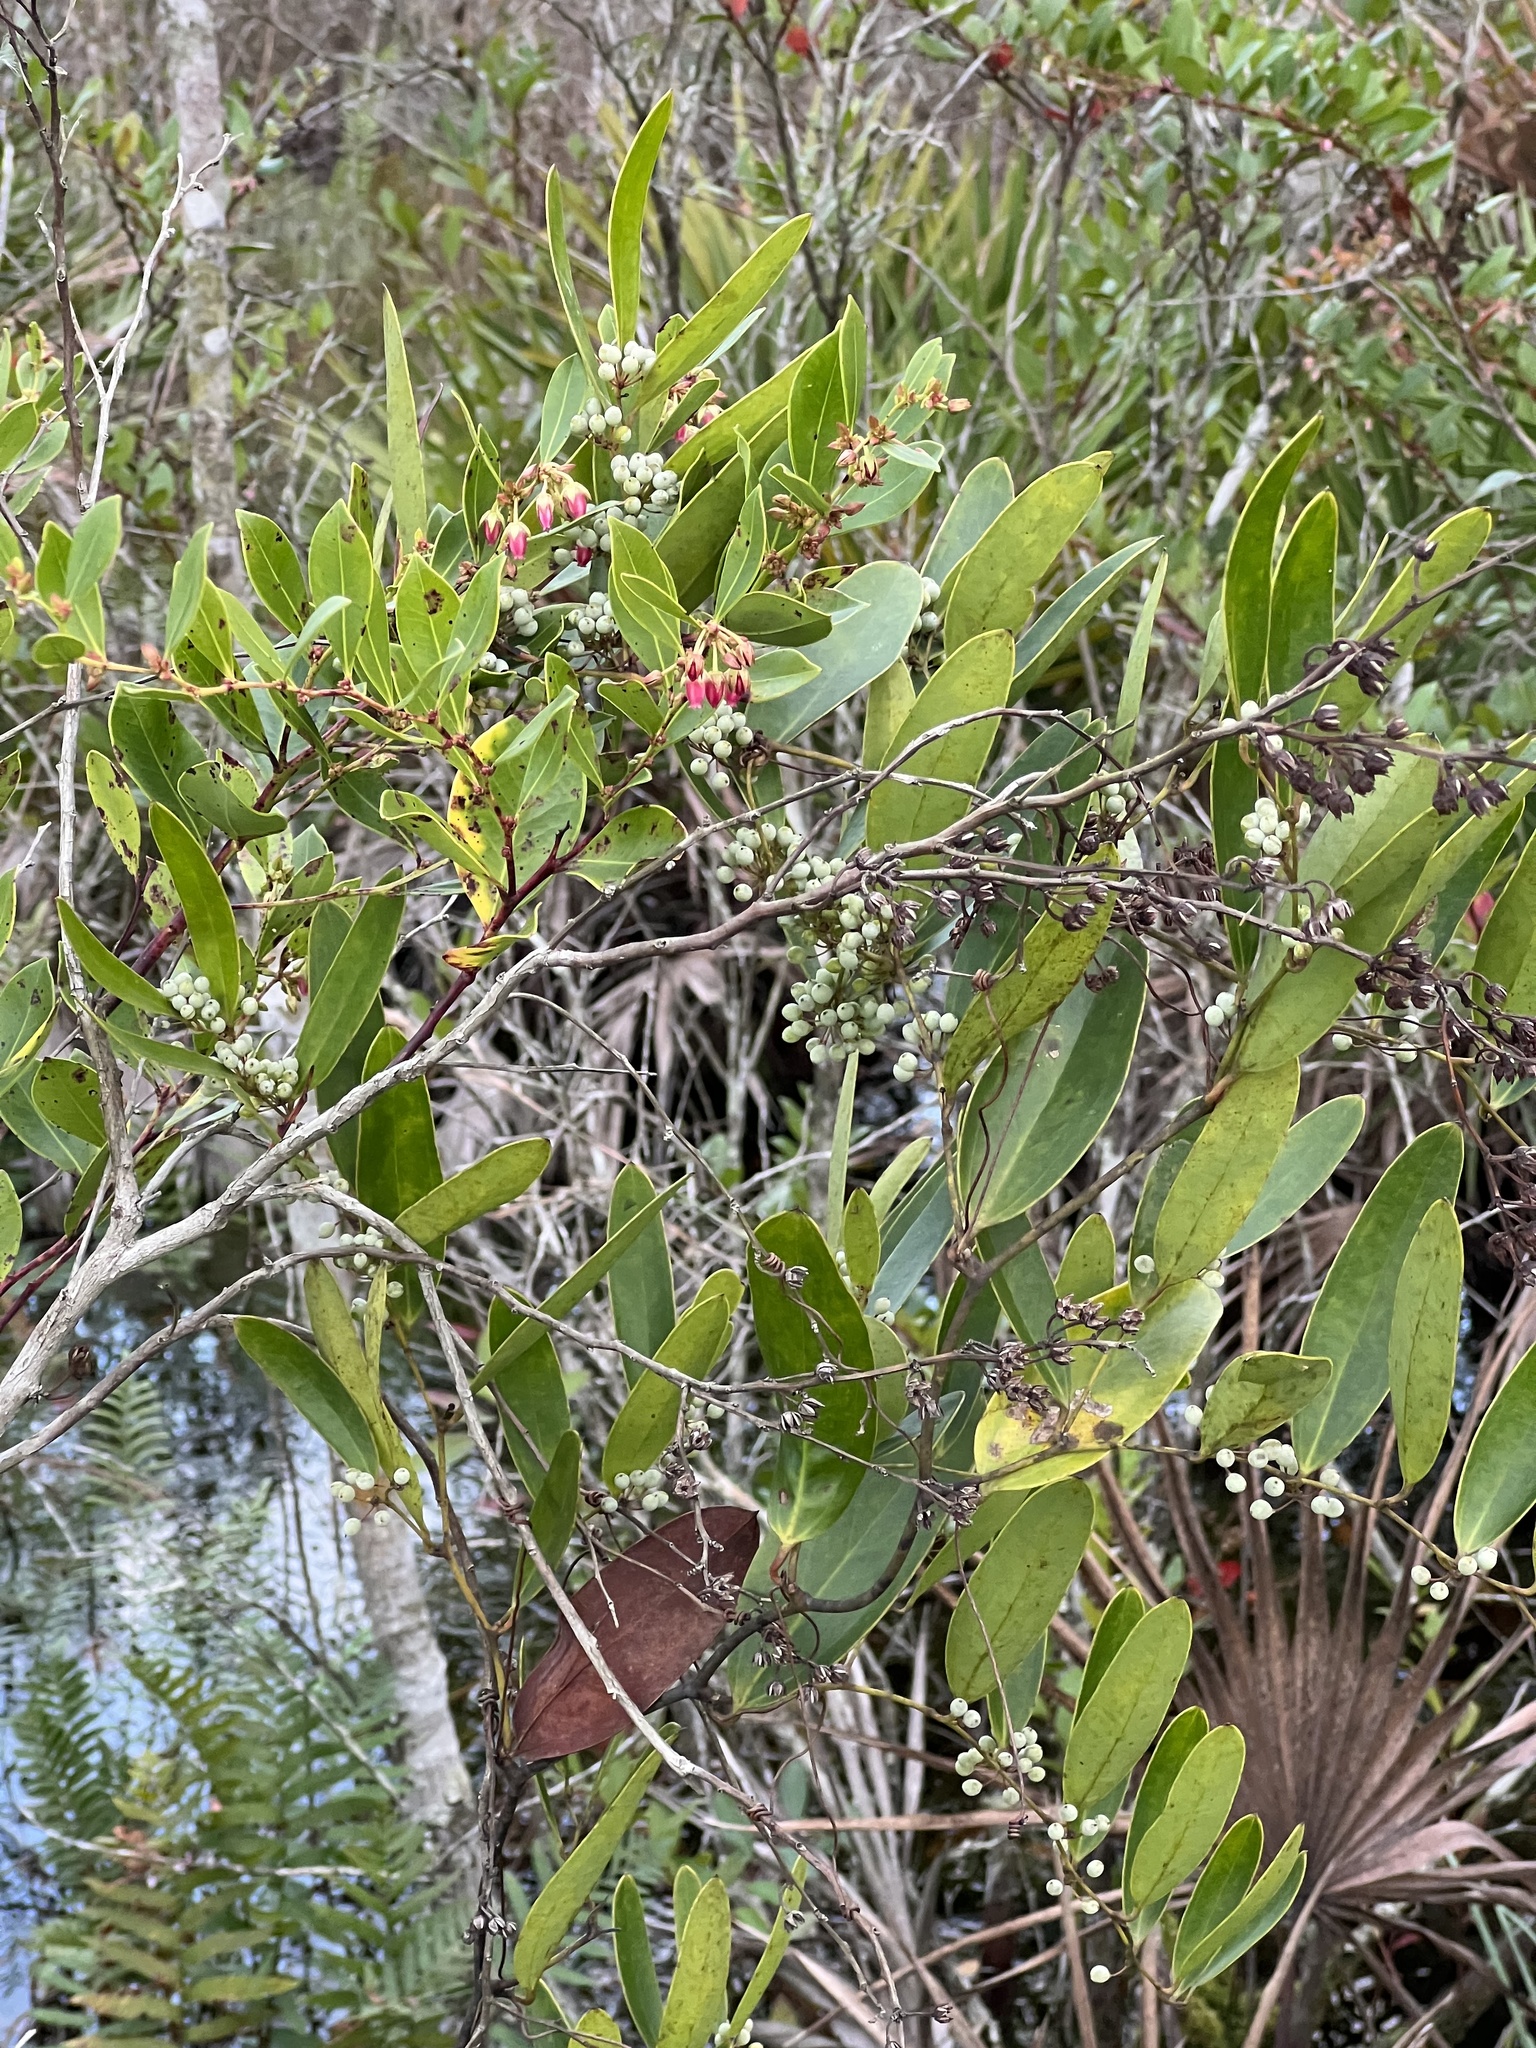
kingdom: Plantae
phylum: Tracheophyta
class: Liliopsida
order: Liliales
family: Smilacaceae
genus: Smilax
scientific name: Smilax laurifolia
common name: Bamboovine
